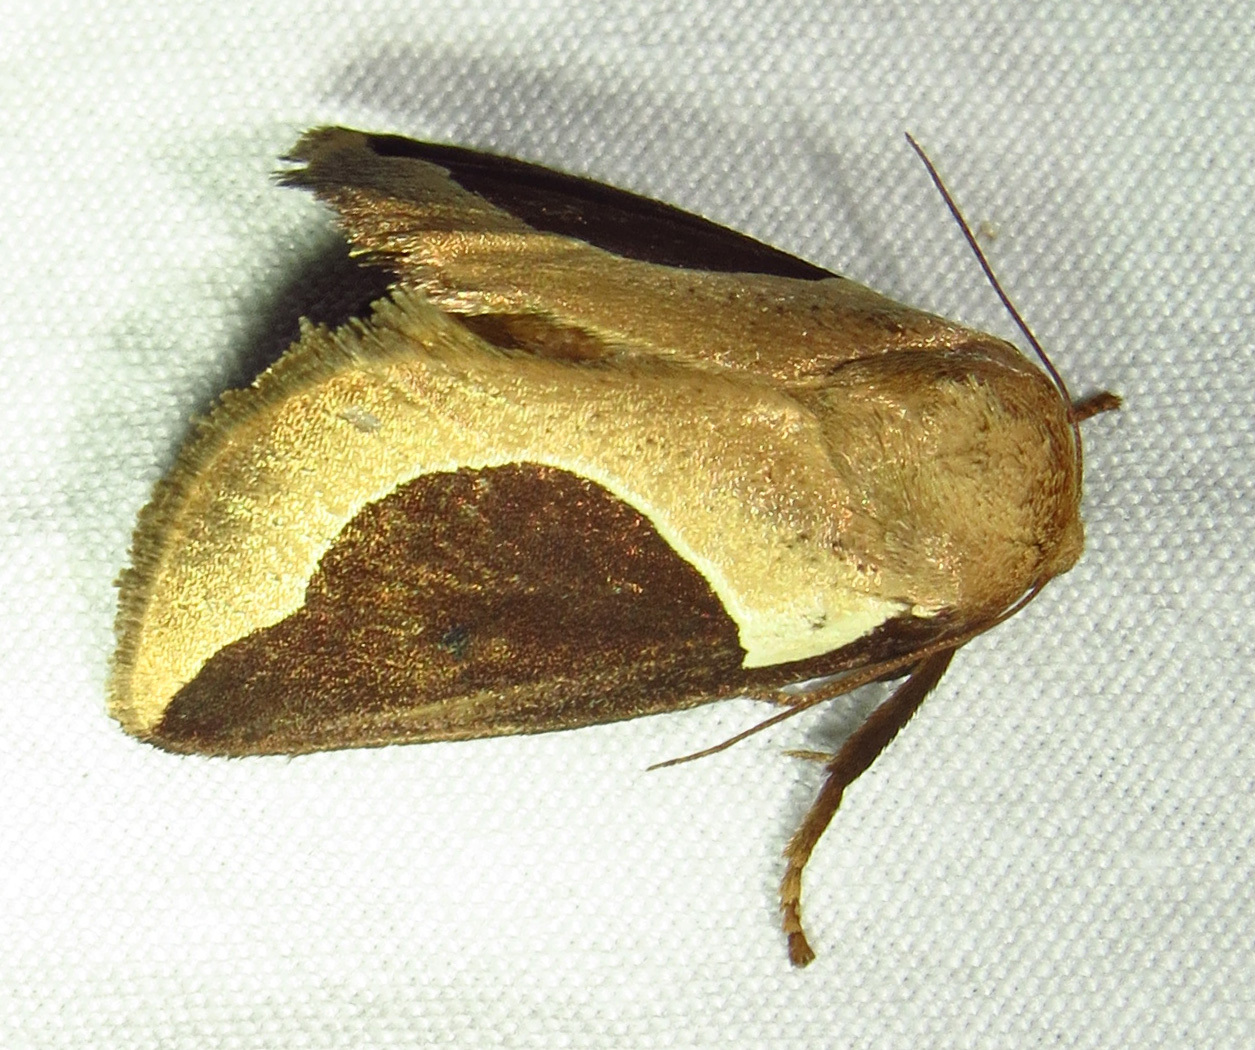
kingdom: Animalia
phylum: Arthropoda
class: Insecta
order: Lepidoptera
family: Limacodidae
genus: Prolimacodes
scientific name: Prolimacodes badia
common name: Skiff moth
